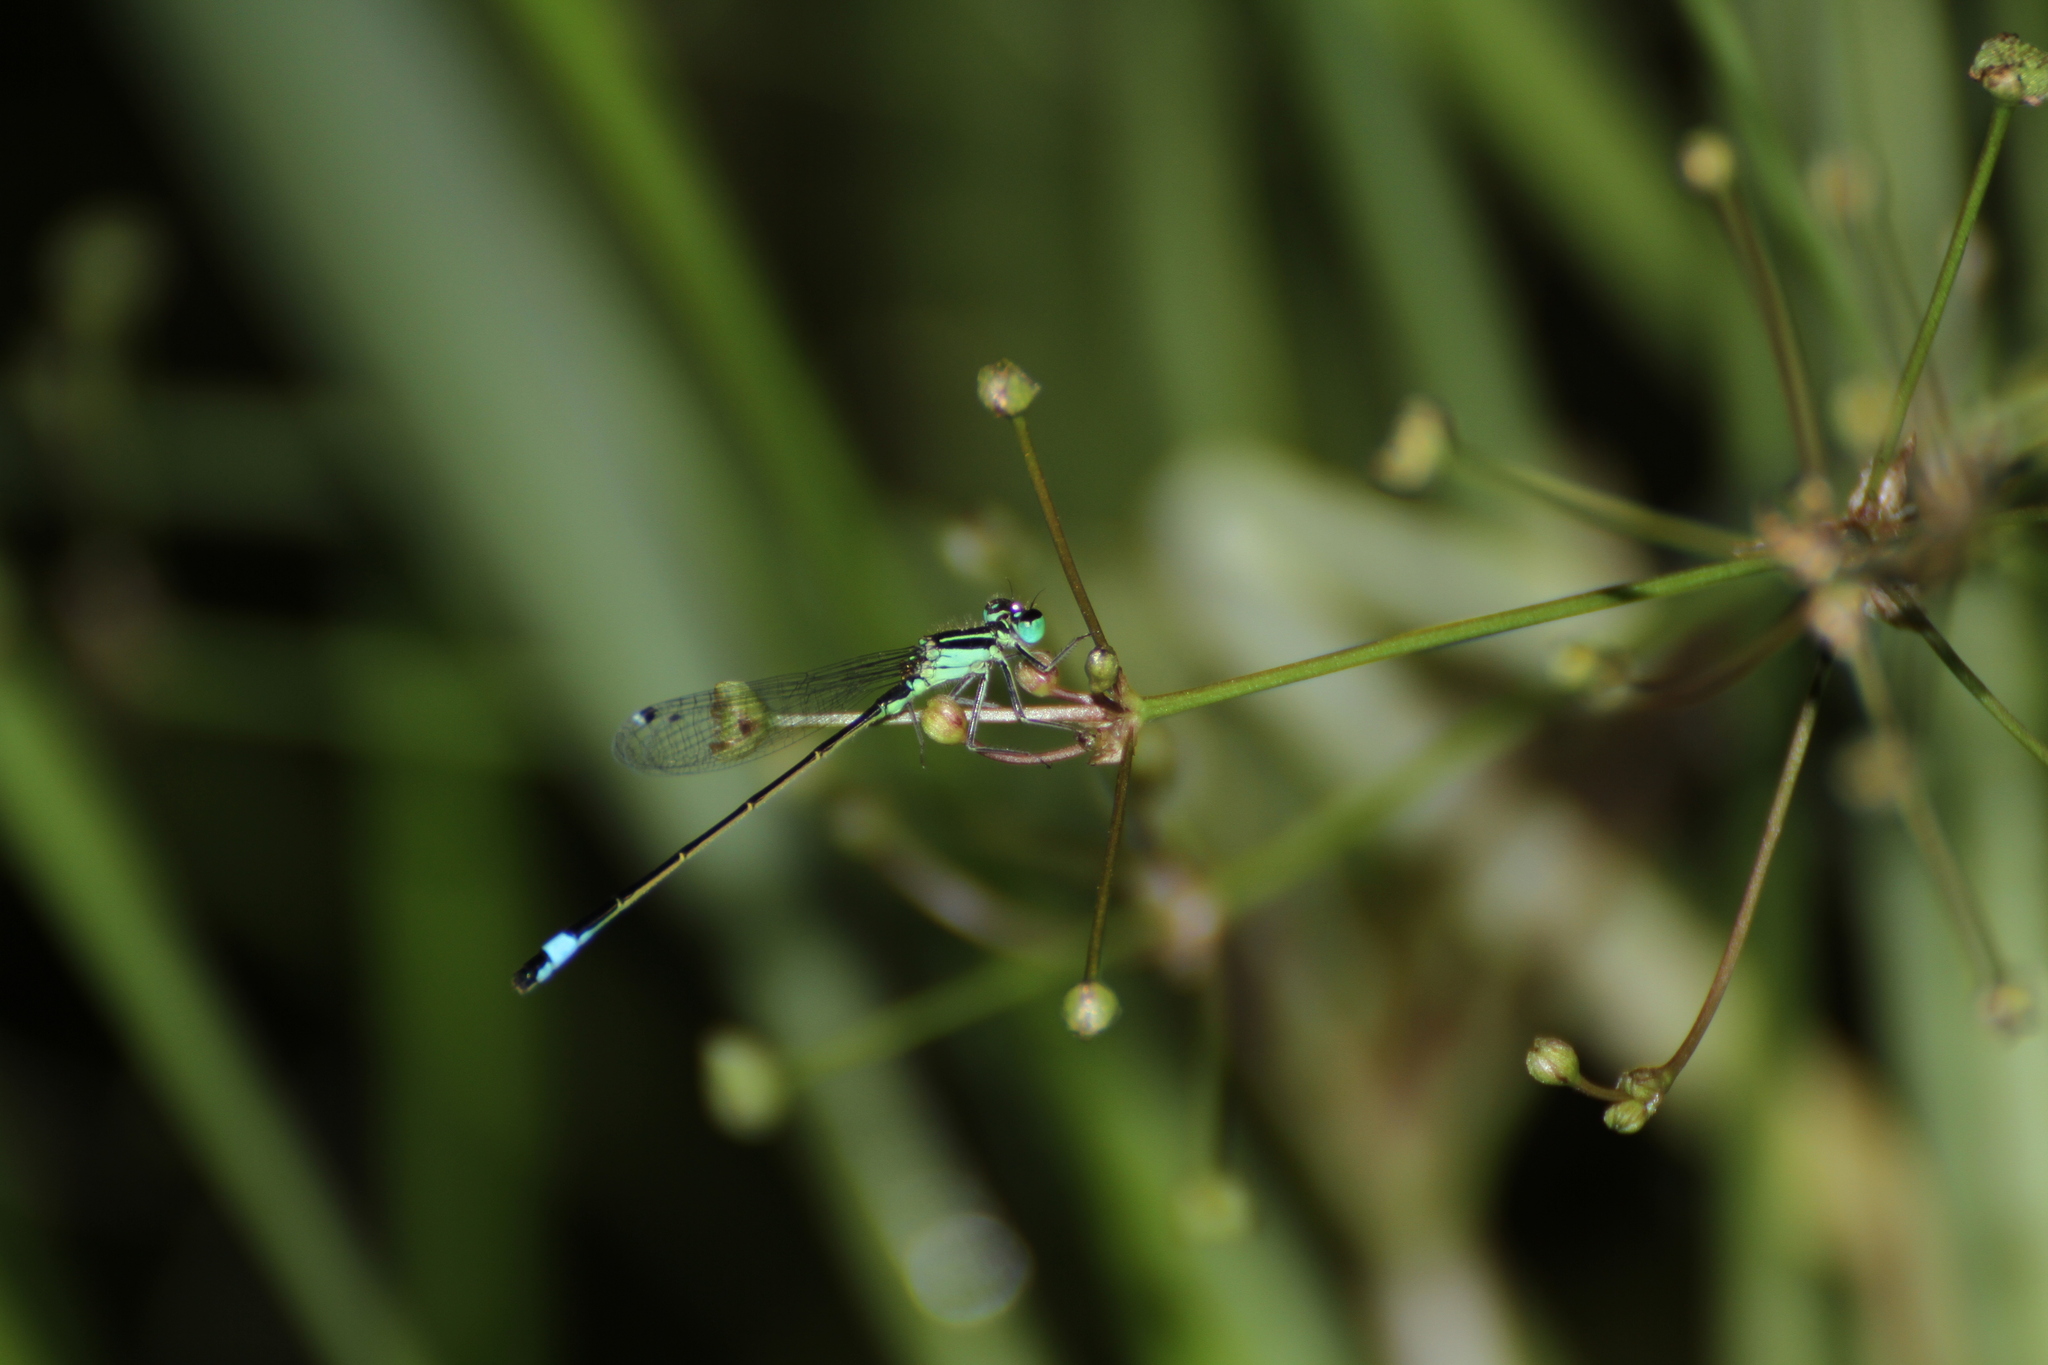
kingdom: Animalia
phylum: Arthropoda
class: Insecta
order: Odonata
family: Coenagrionidae
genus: Ischnura
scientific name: Ischnura elegans
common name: Blue-tailed damselfly
